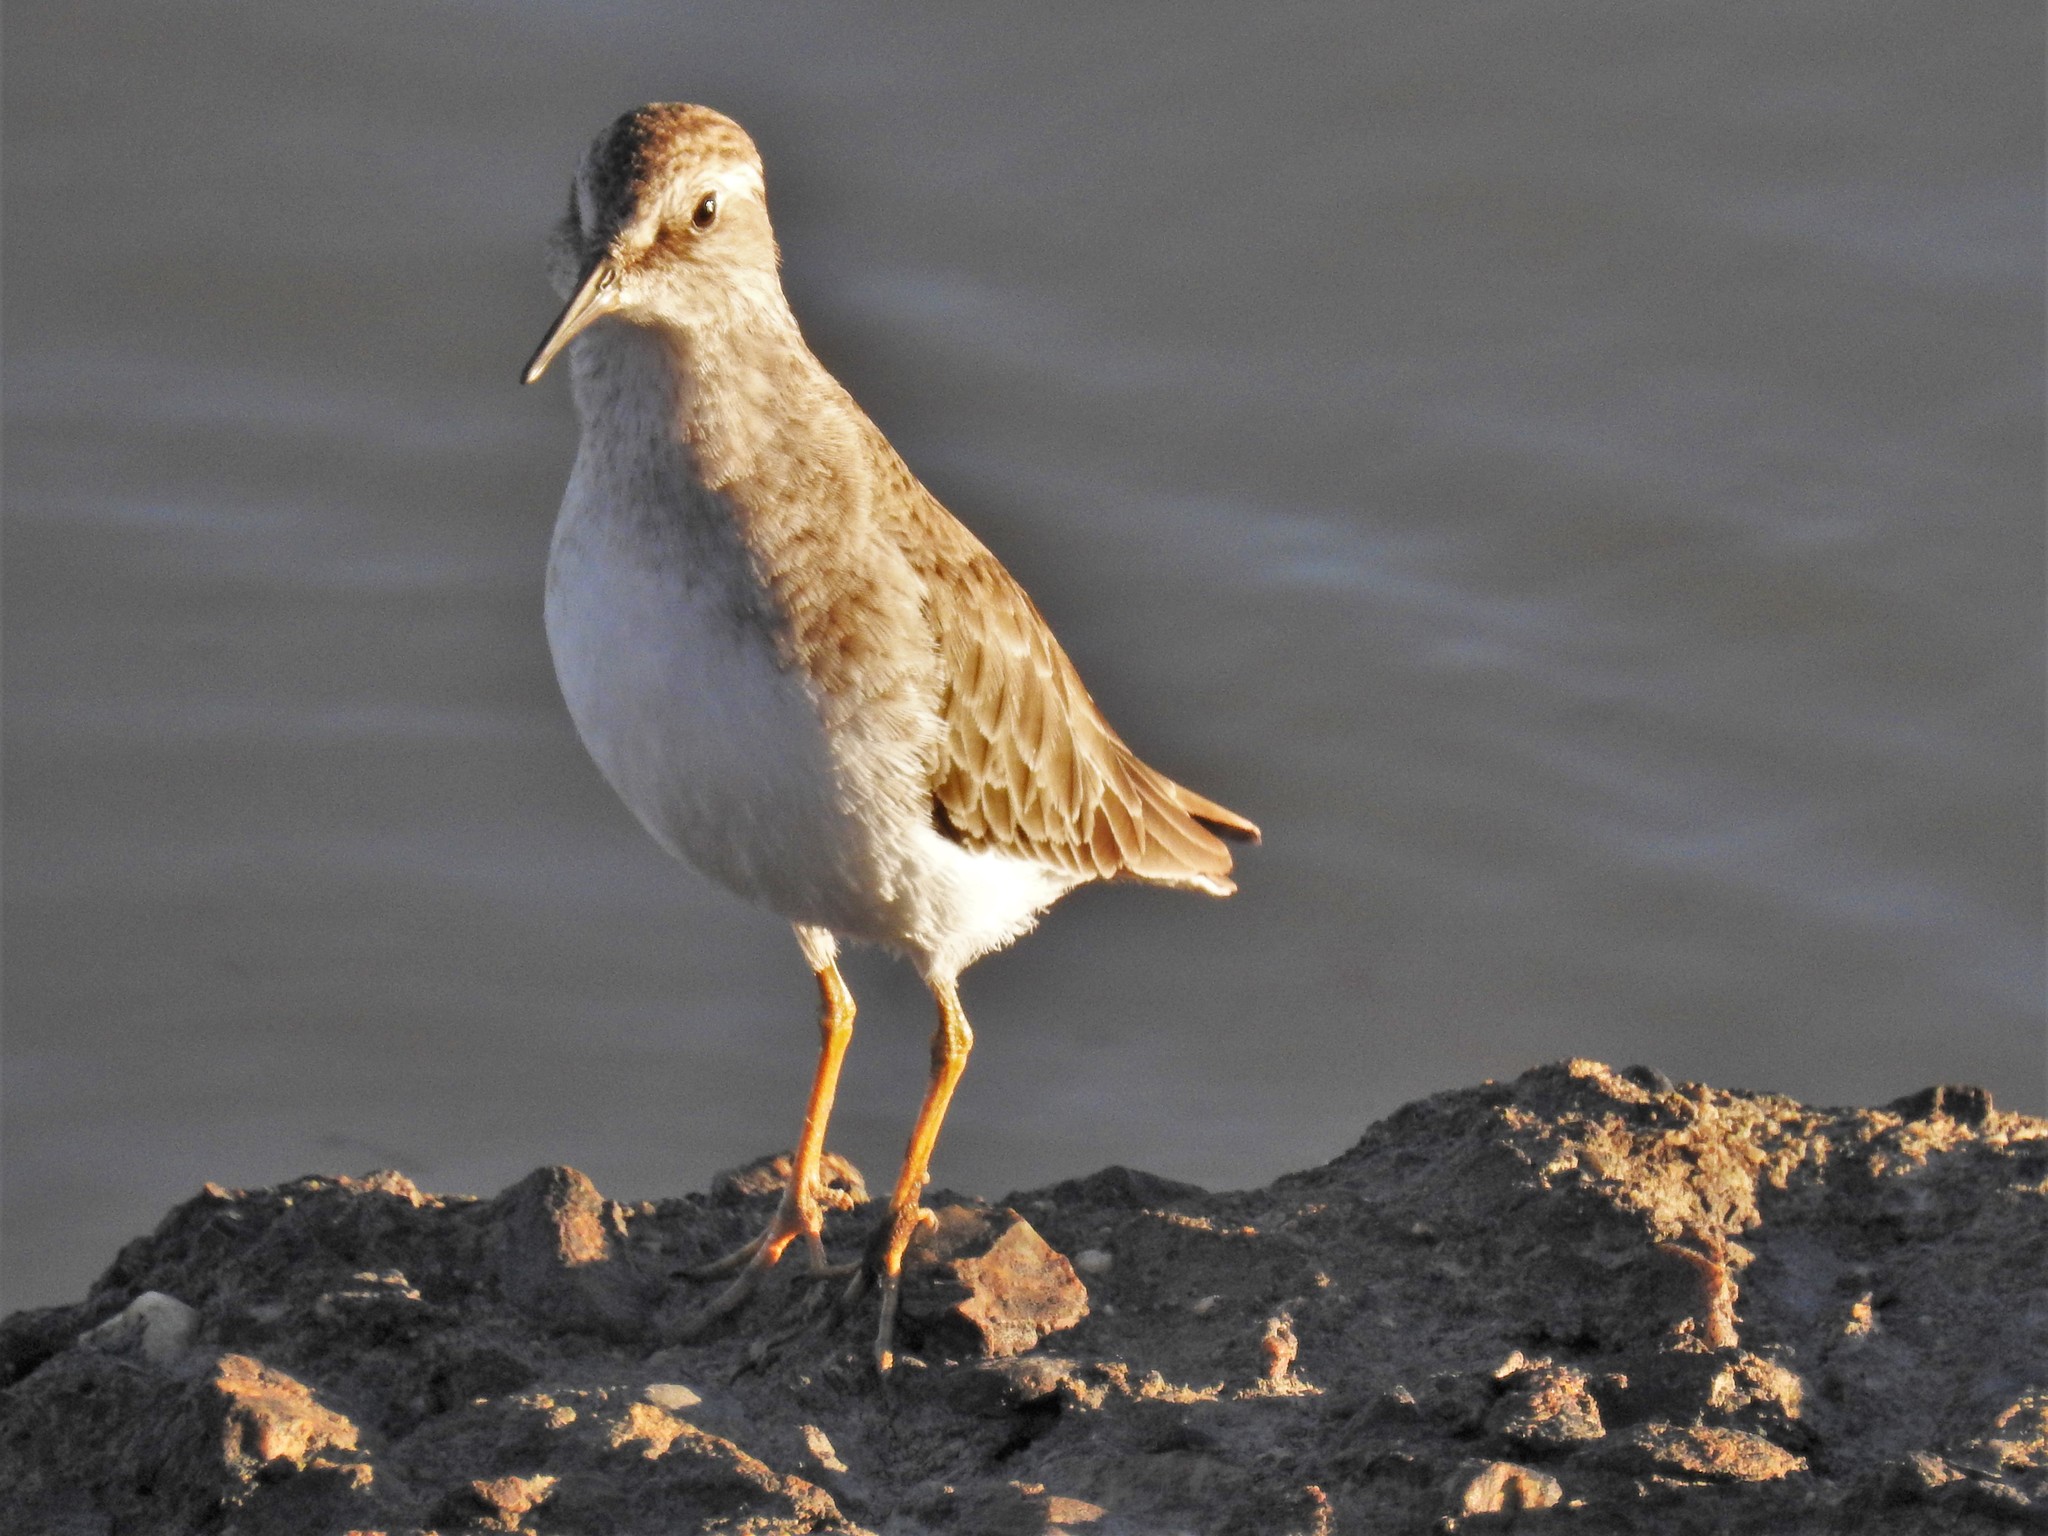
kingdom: Animalia
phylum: Chordata
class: Aves
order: Charadriiformes
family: Scolopacidae
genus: Calidris
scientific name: Calidris minutilla
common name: Least sandpiper
